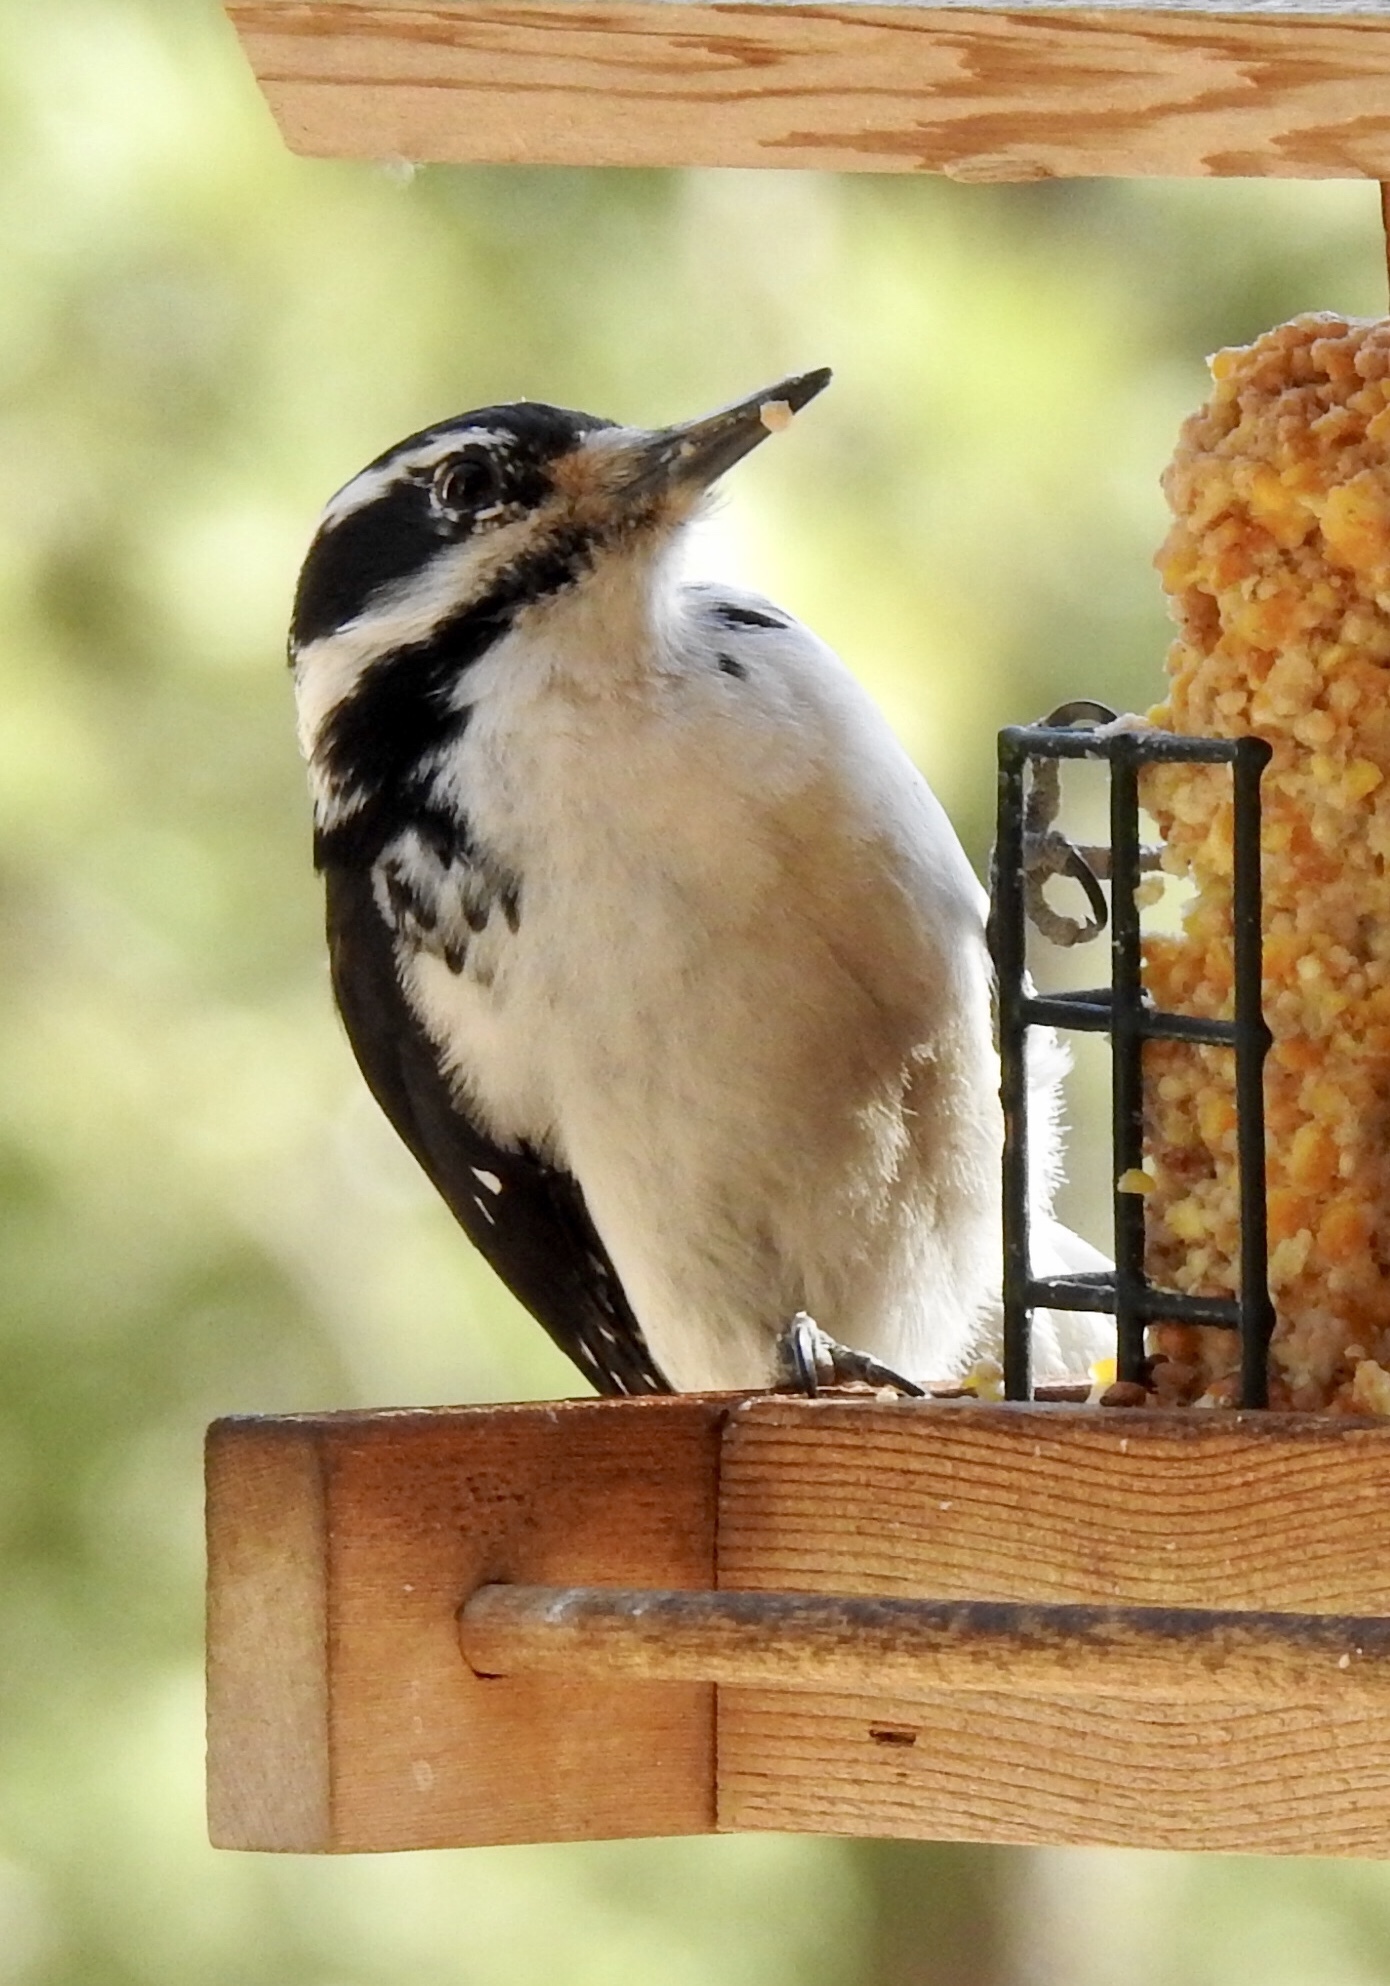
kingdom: Animalia
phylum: Chordata
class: Aves
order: Piciformes
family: Picidae
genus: Leuconotopicus
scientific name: Leuconotopicus villosus
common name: Hairy woodpecker
